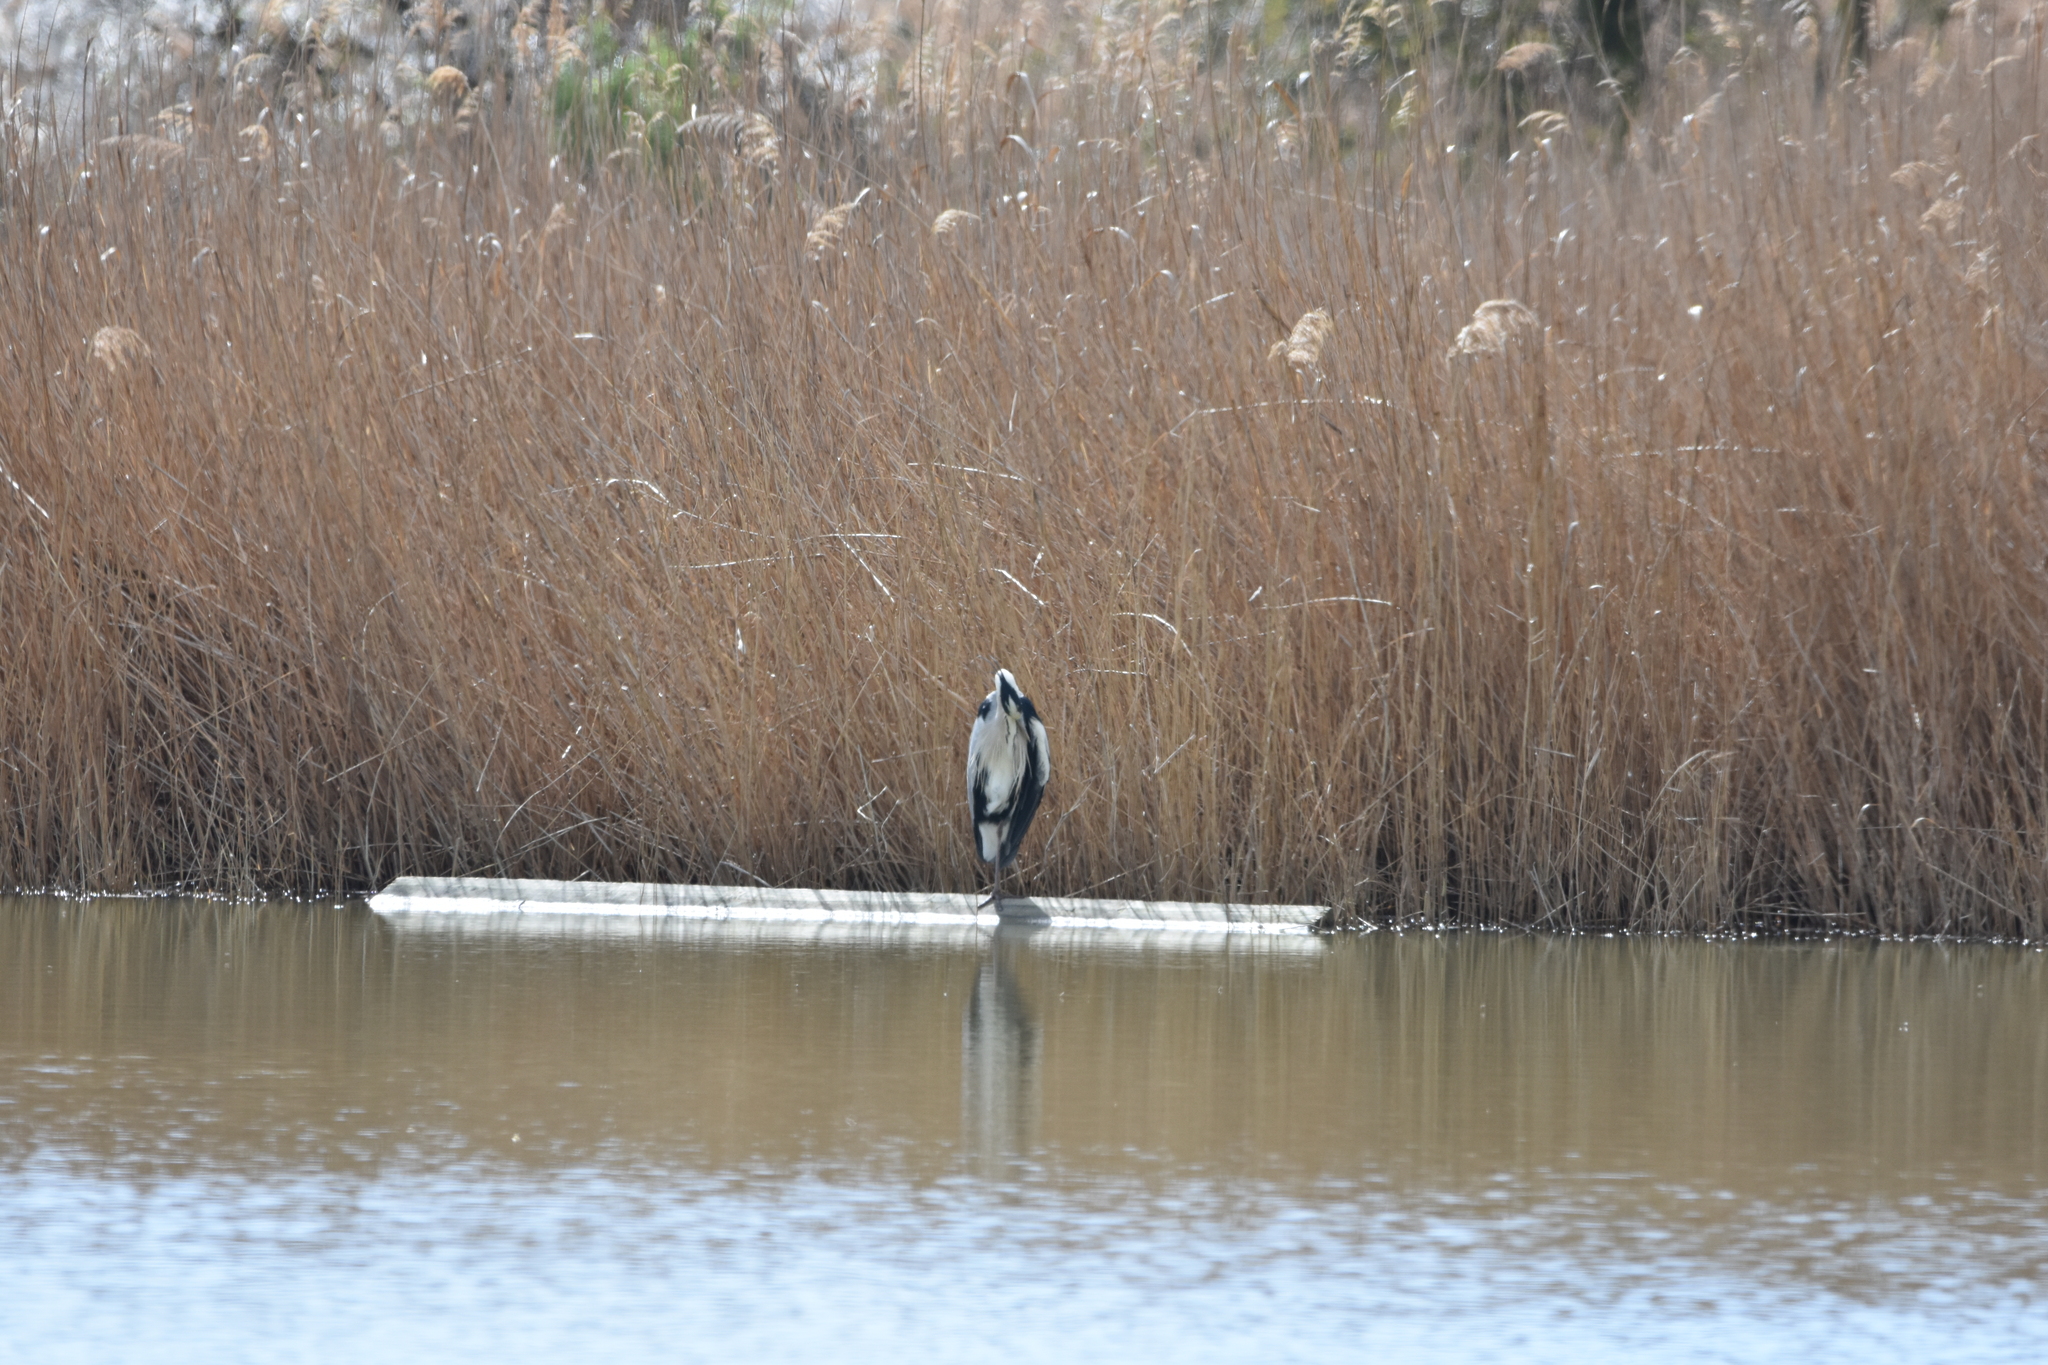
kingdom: Animalia
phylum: Chordata
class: Aves
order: Pelecaniformes
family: Ardeidae
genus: Ardea
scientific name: Ardea cinerea
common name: Grey heron
